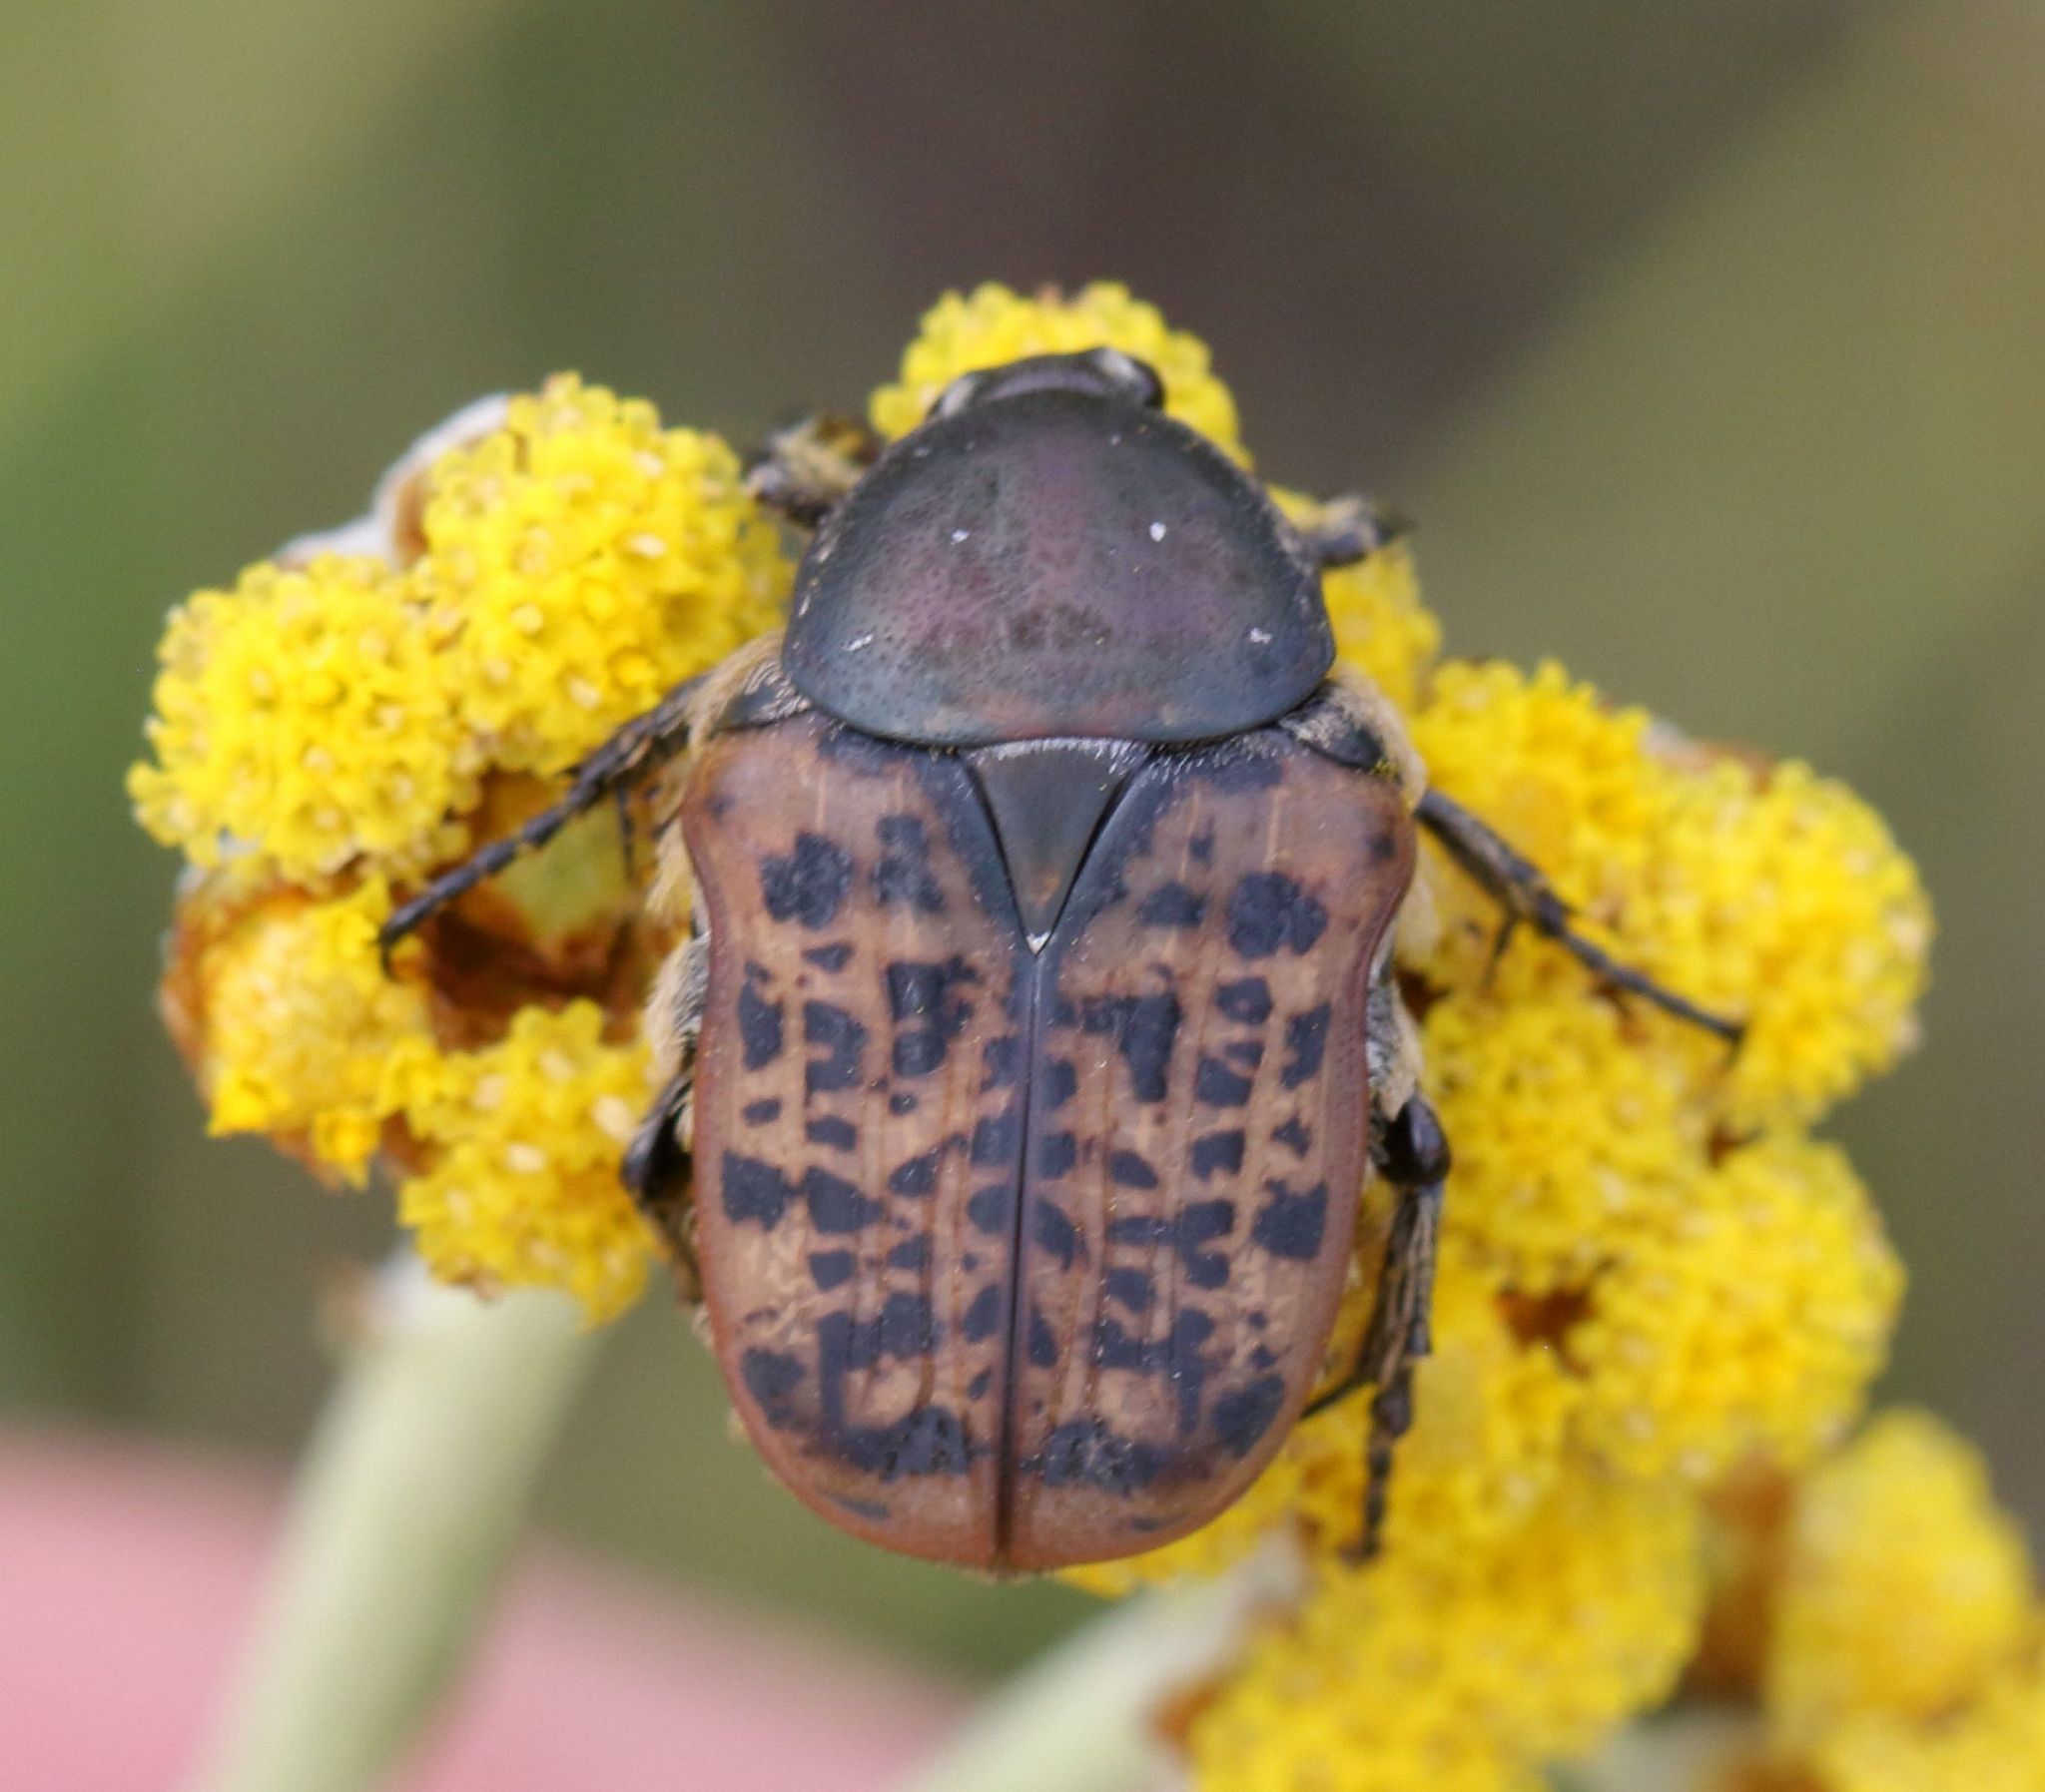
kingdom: Animalia
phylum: Arthropoda
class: Insecta
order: Coleoptera
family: Scarabaeidae
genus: Atrichelaphinis
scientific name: Atrichelaphinis tigrina
